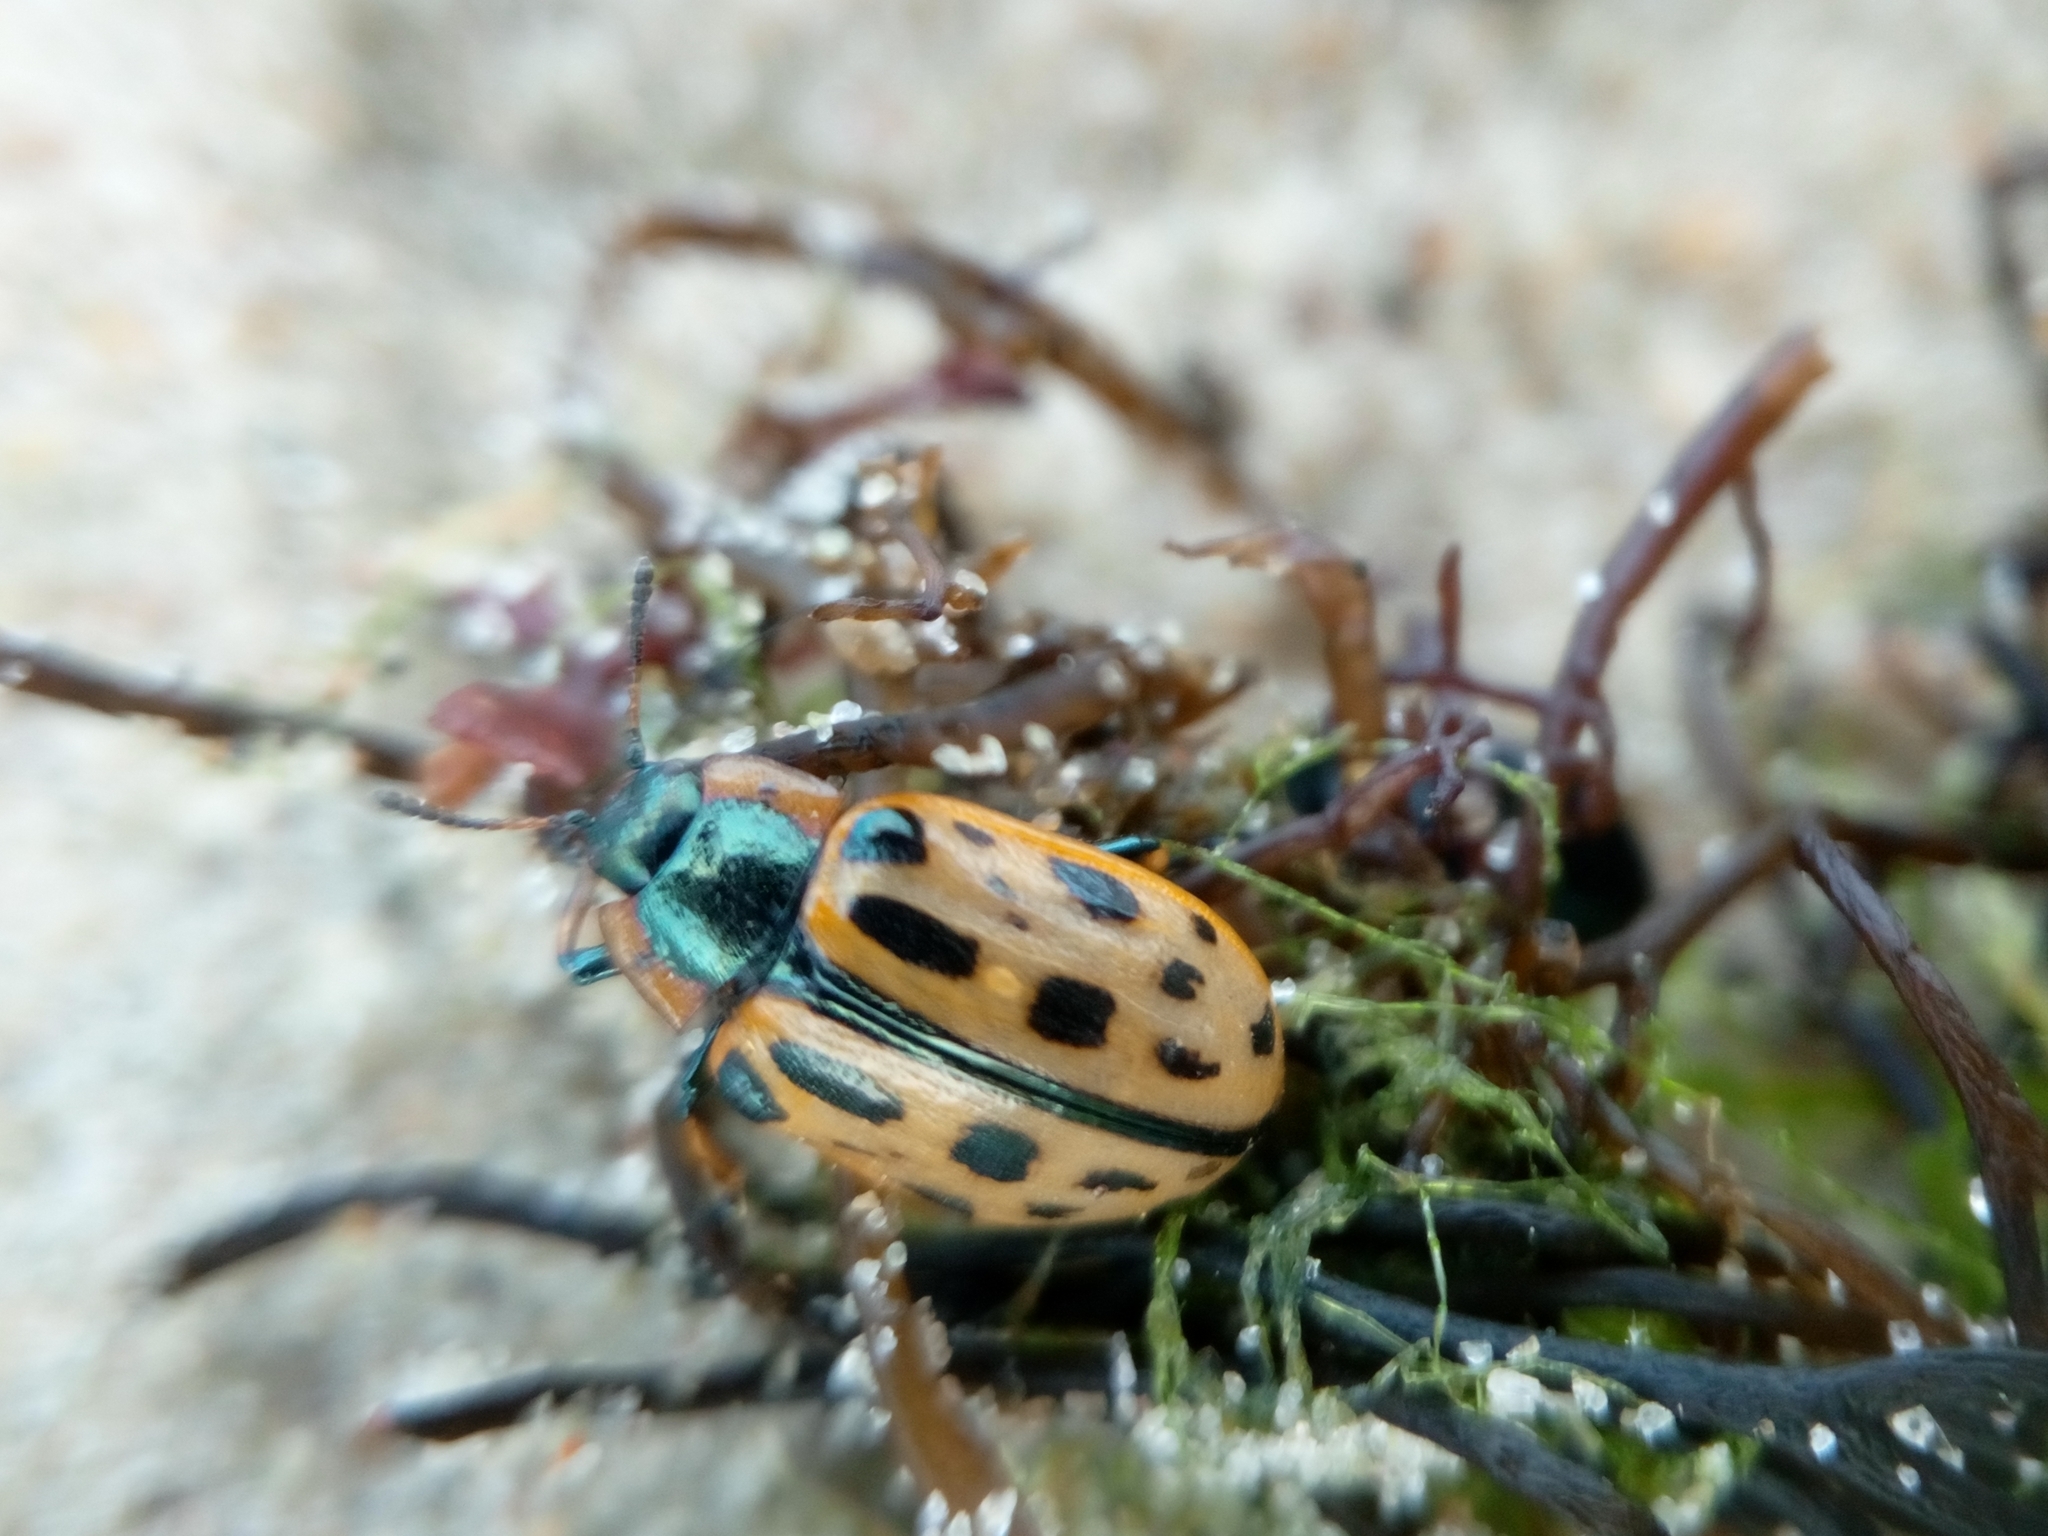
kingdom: Animalia
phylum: Arthropoda
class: Insecta
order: Coleoptera
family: Chrysomelidae
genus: Chrysomela
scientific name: Chrysomela vigintipunctata
